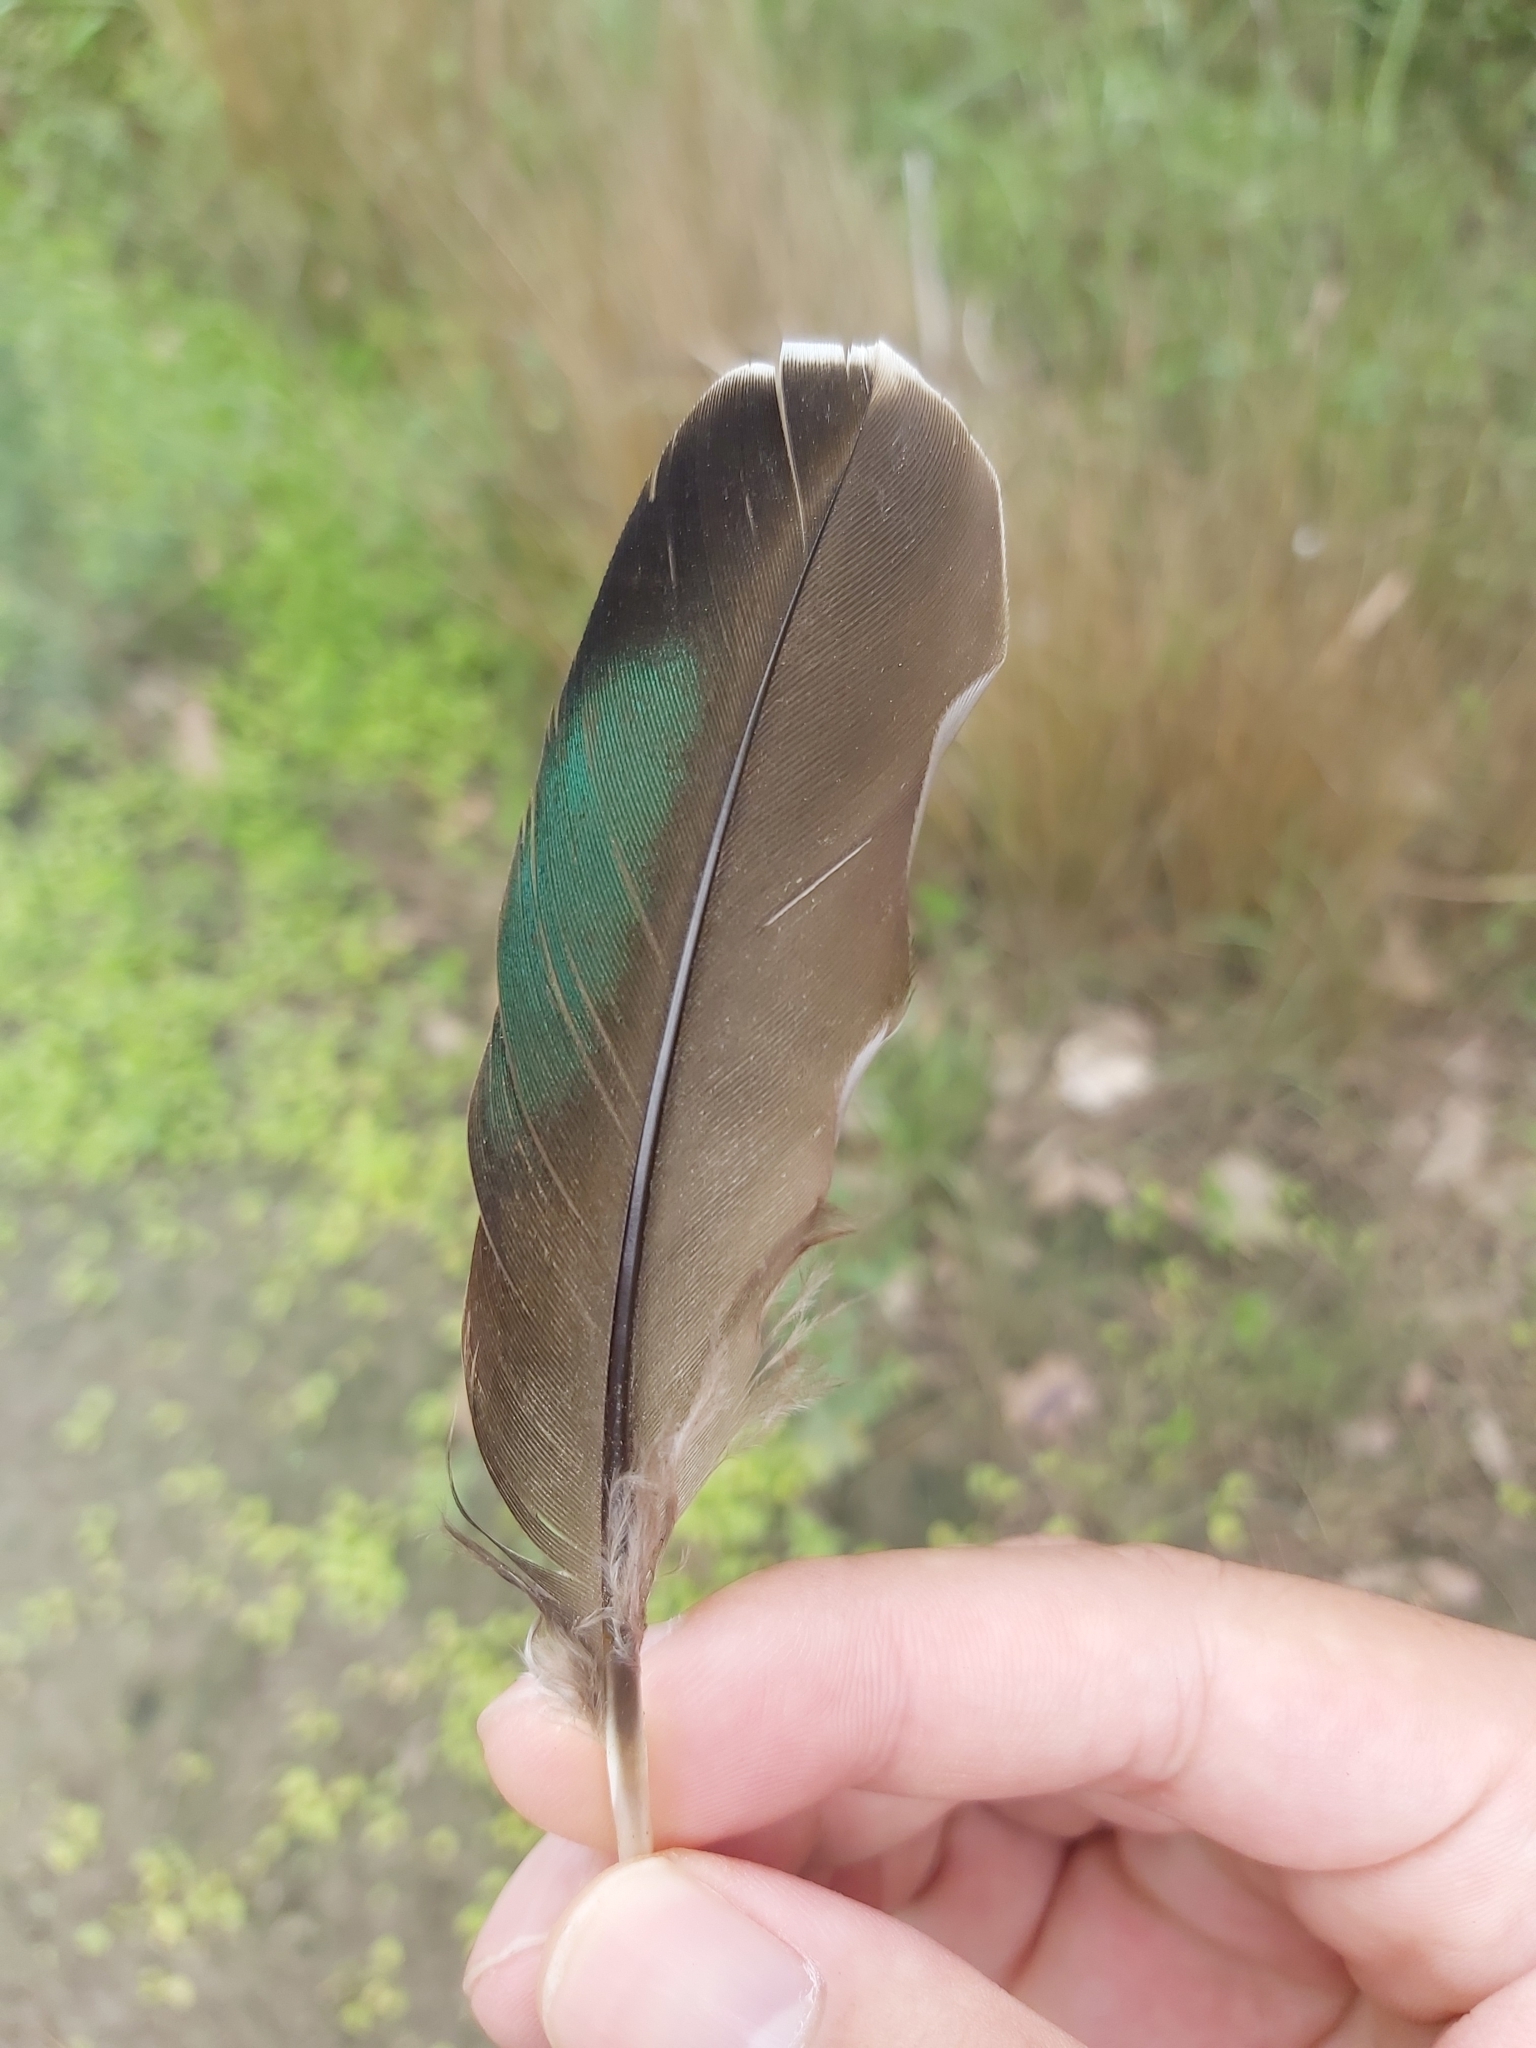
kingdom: Animalia
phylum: Chordata
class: Aves
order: Anseriformes
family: Anatidae
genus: Anas
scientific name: Anas superciliosa
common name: Pacific black duck
